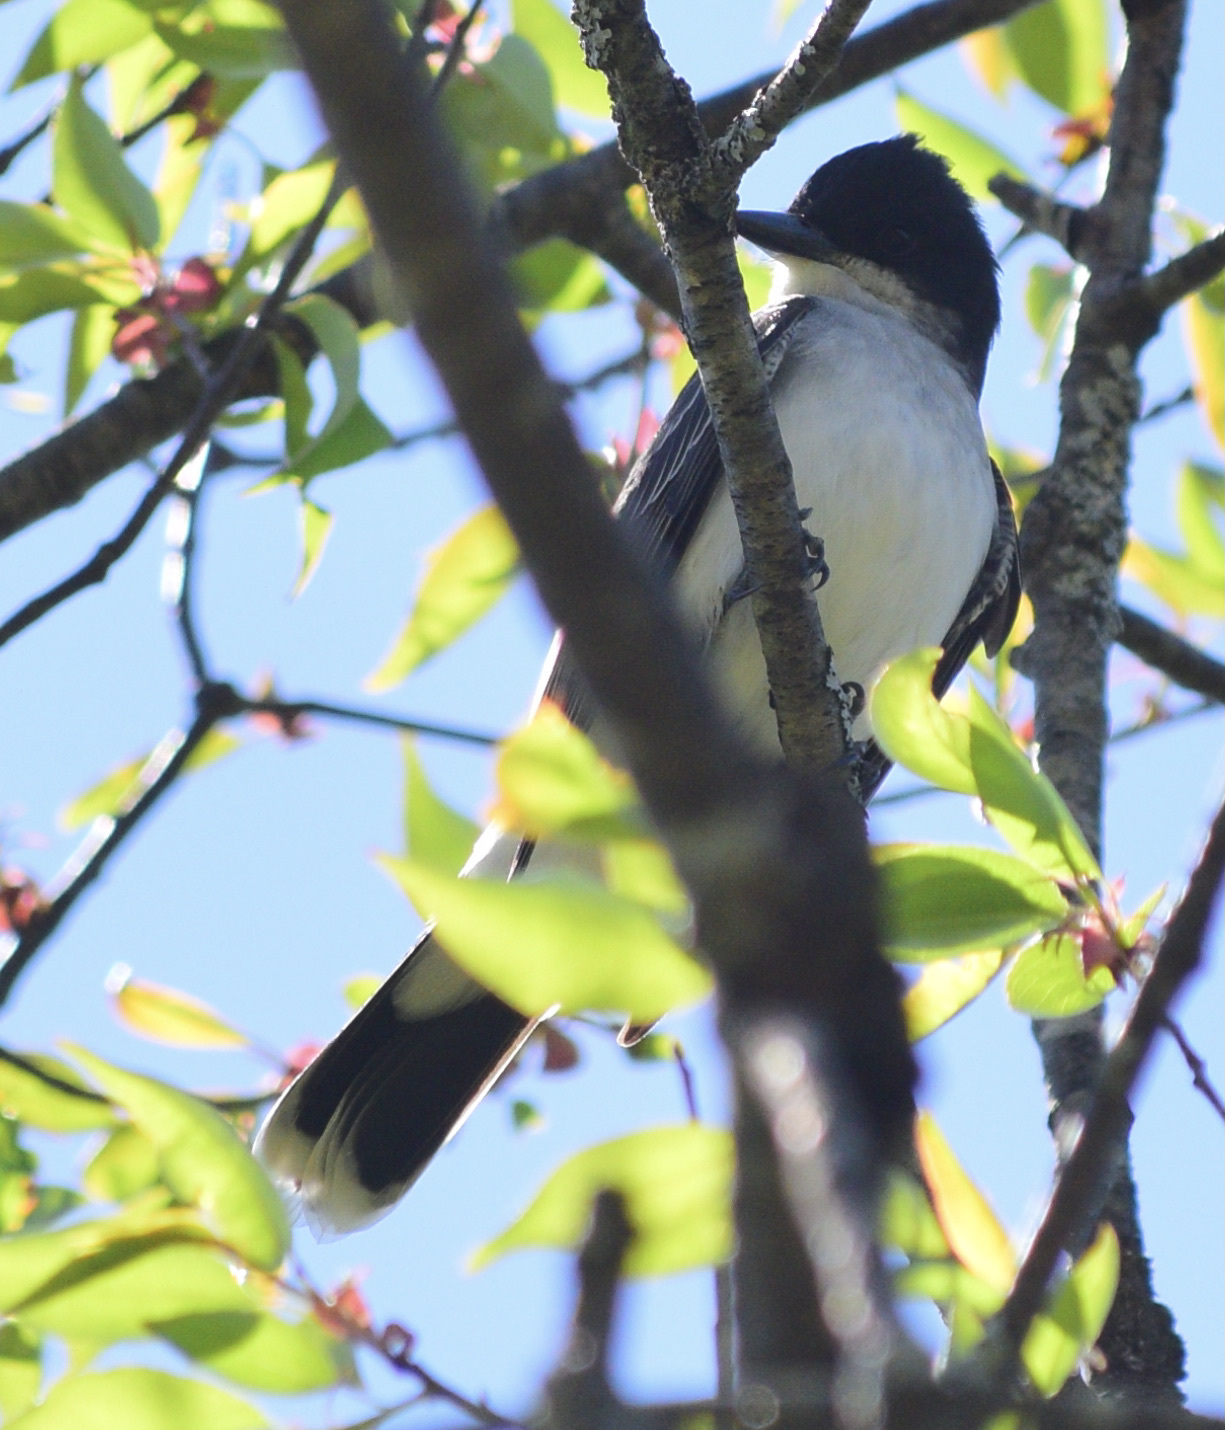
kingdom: Animalia
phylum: Chordata
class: Aves
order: Passeriformes
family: Tyrannidae
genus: Tyrannus
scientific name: Tyrannus tyrannus
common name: Eastern kingbird
